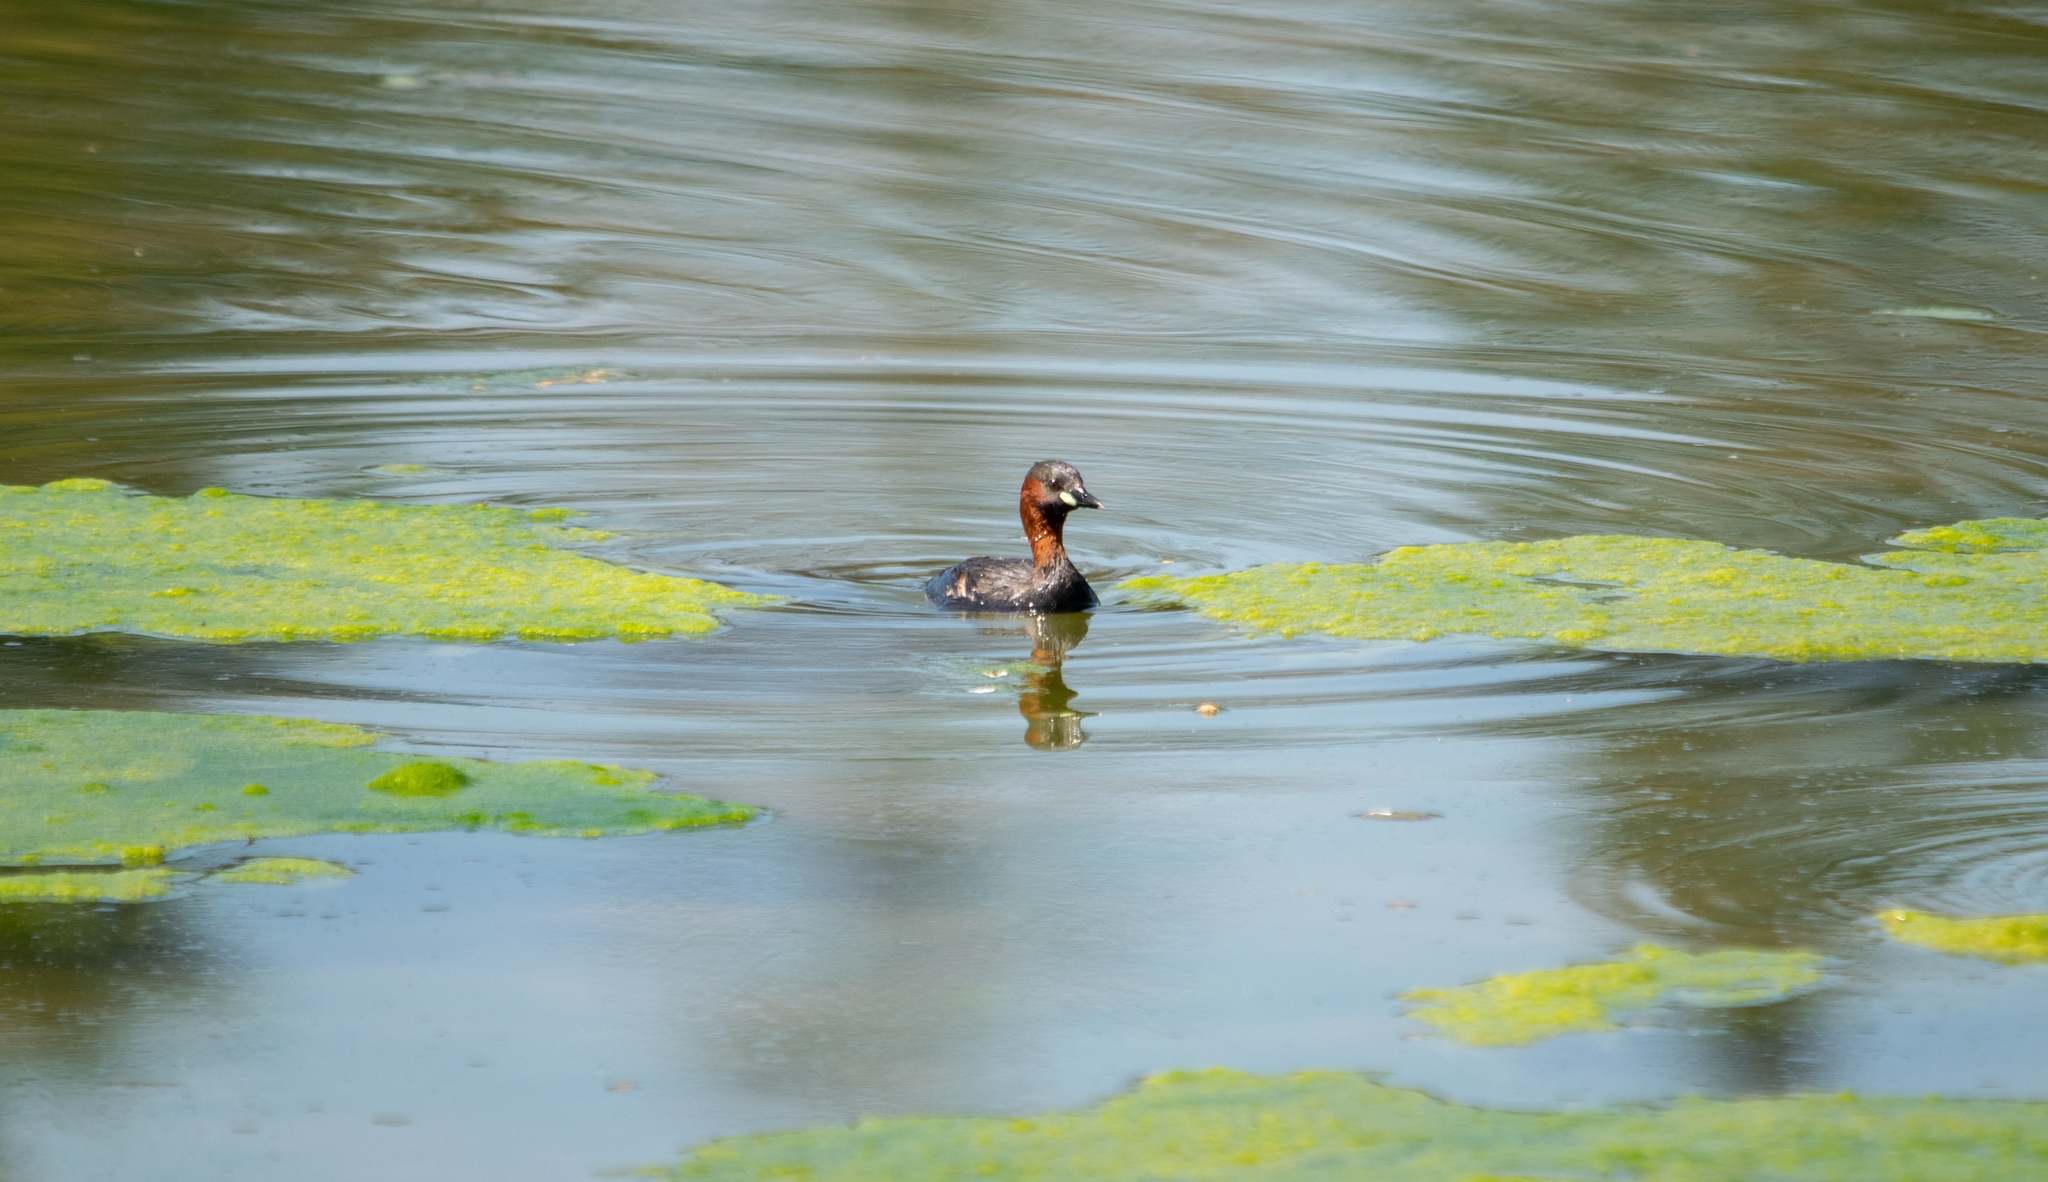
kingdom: Animalia
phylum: Chordata
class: Aves
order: Podicipediformes
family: Podicipedidae
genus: Tachybaptus
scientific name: Tachybaptus ruficollis
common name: Little grebe
